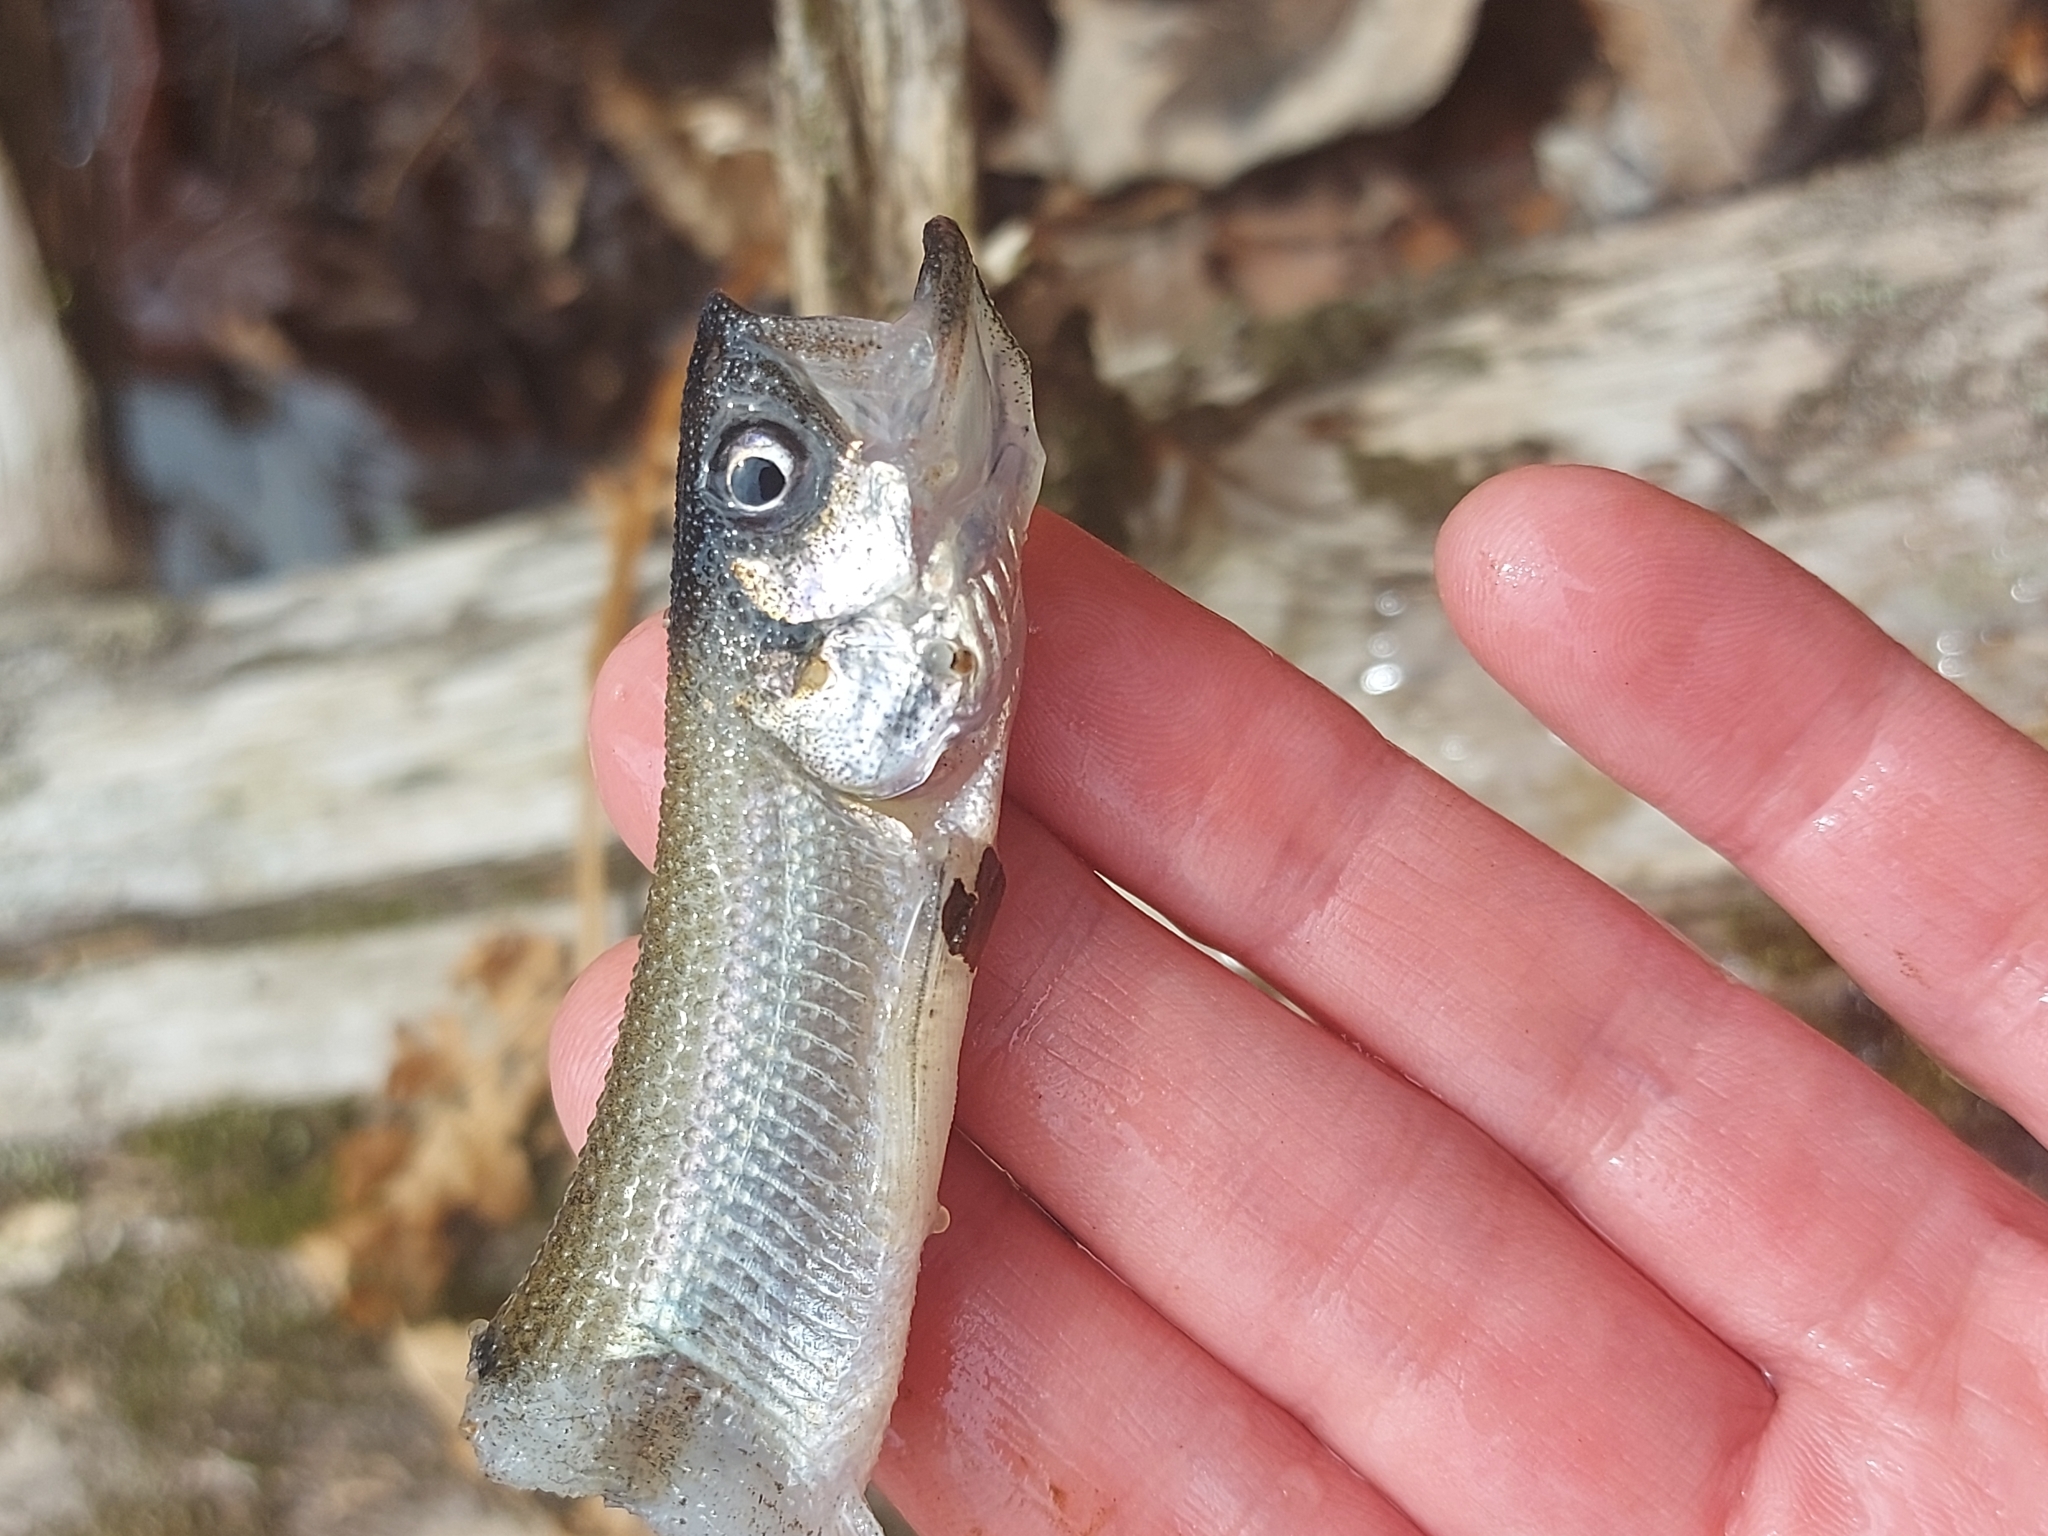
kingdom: Animalia
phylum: Chordata
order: Osmeriformes
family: Osmeridae
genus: Osmerus
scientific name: Osmerus mordax
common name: Rainbow smelt
